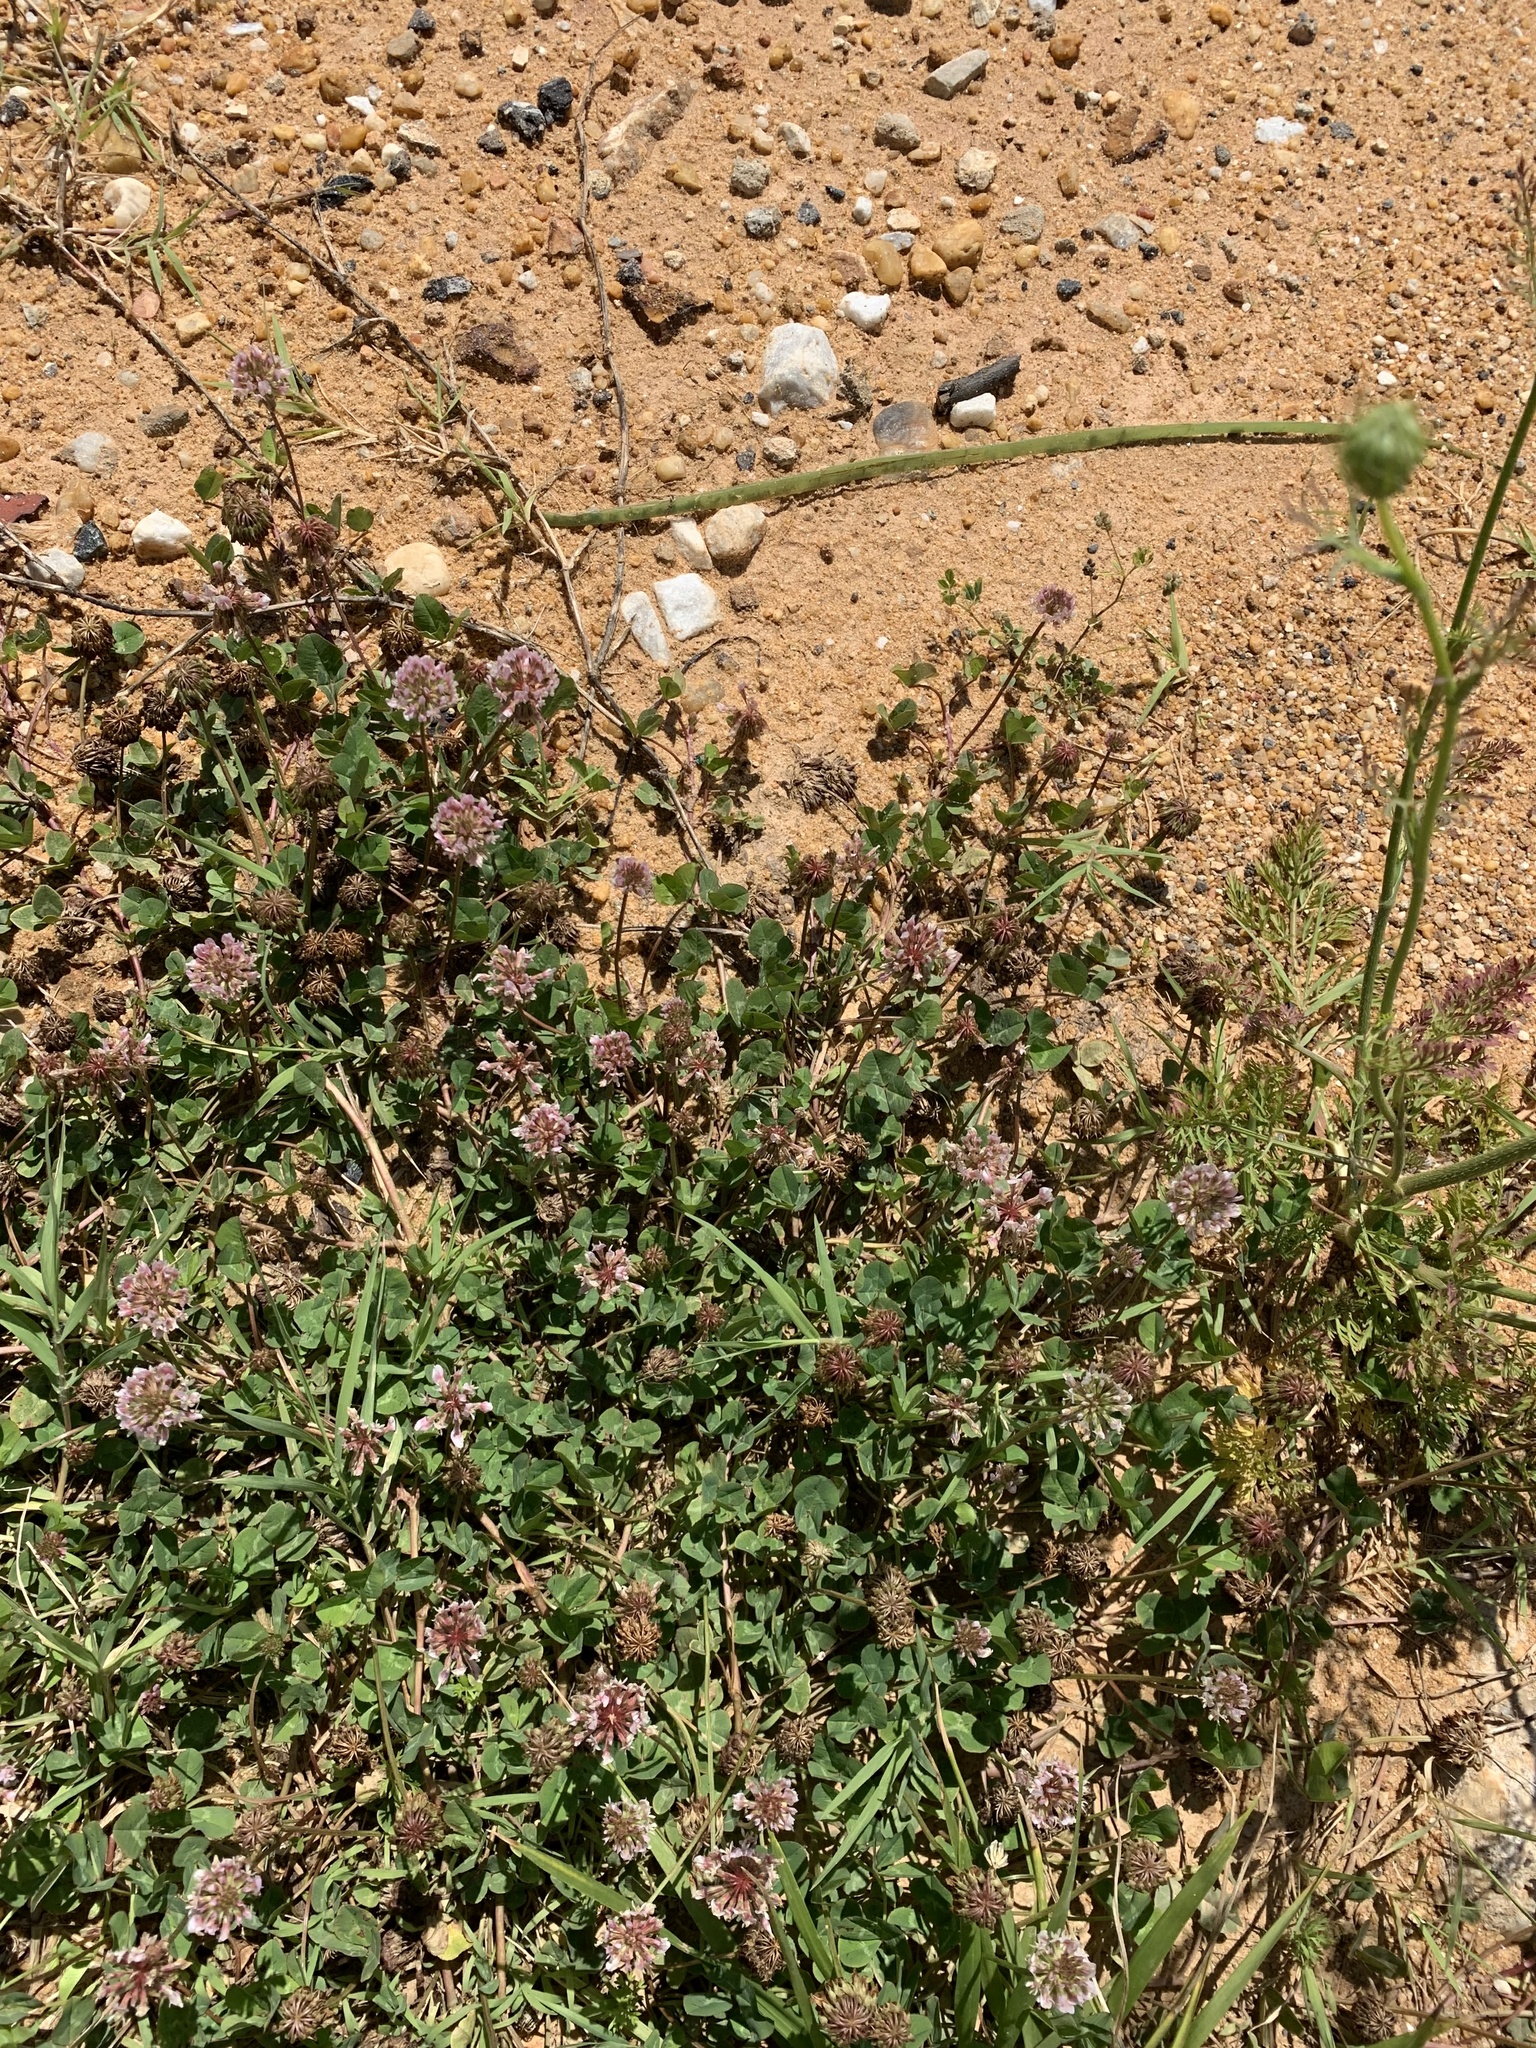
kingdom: Plantae
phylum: Tracheophyta
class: Magnoliopsida
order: Fabales
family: Fabaceae
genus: Trifolium
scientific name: Trifolium repens
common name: White clover
